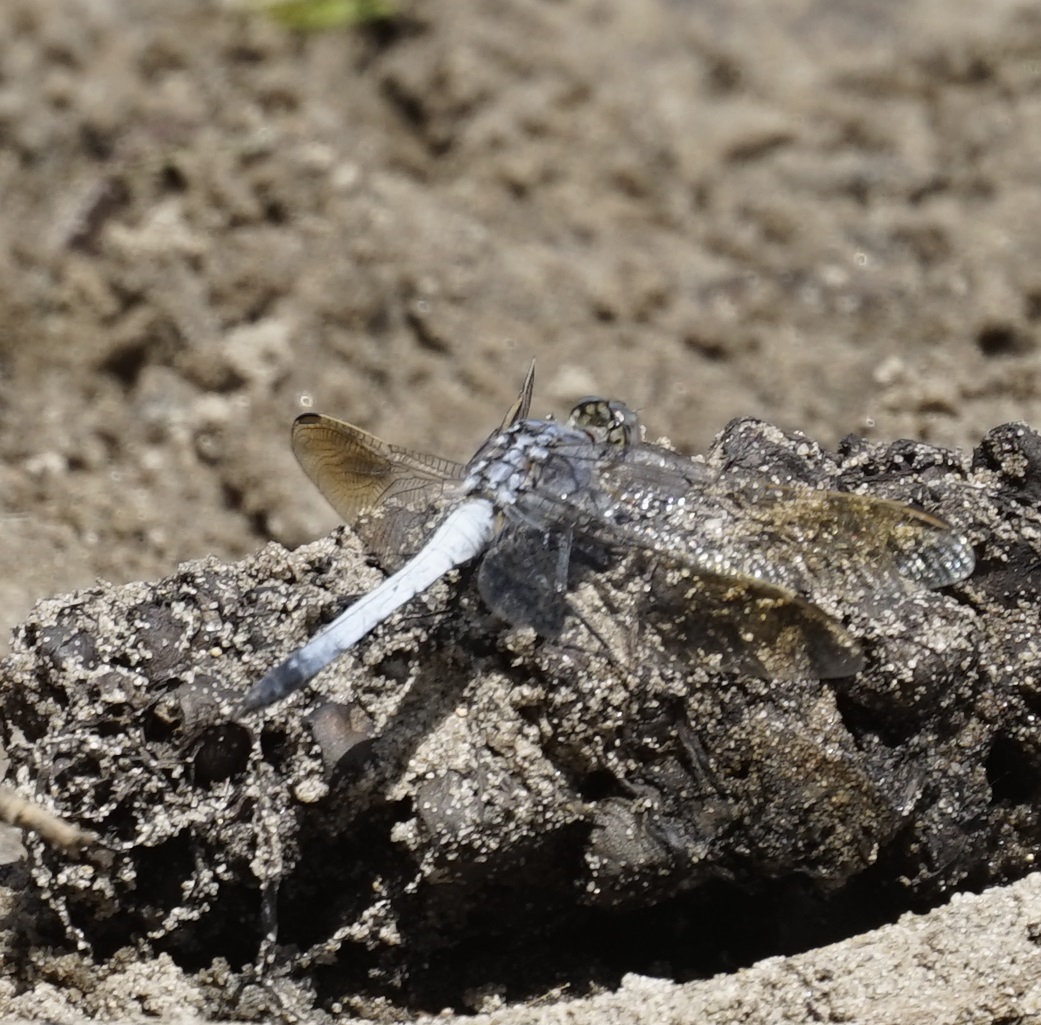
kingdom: Animalia
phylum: Arthropoda
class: Insecta
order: Odonata
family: Libellulidae
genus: Orthetrum
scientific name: Orthetrum caledonicum
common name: Blue skimmer
